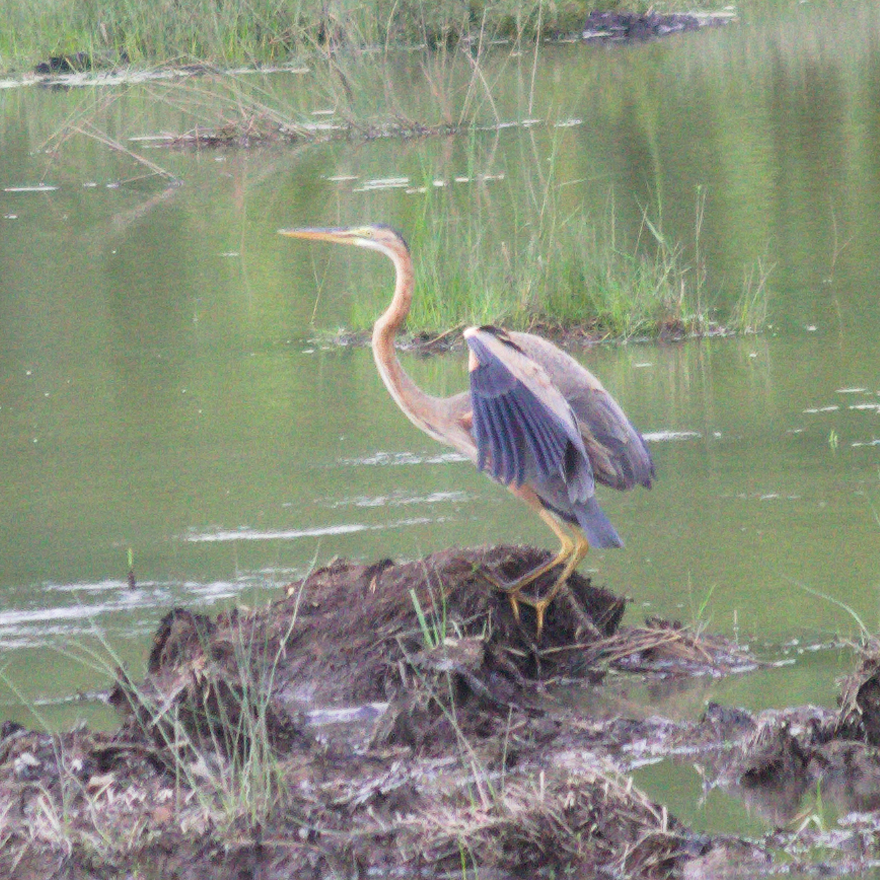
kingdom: Animalia
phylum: Chordata
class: Aves
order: Pelecaniformes
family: Ardeidae
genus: Ardea
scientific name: Ardea purpurea
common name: Purple heron
